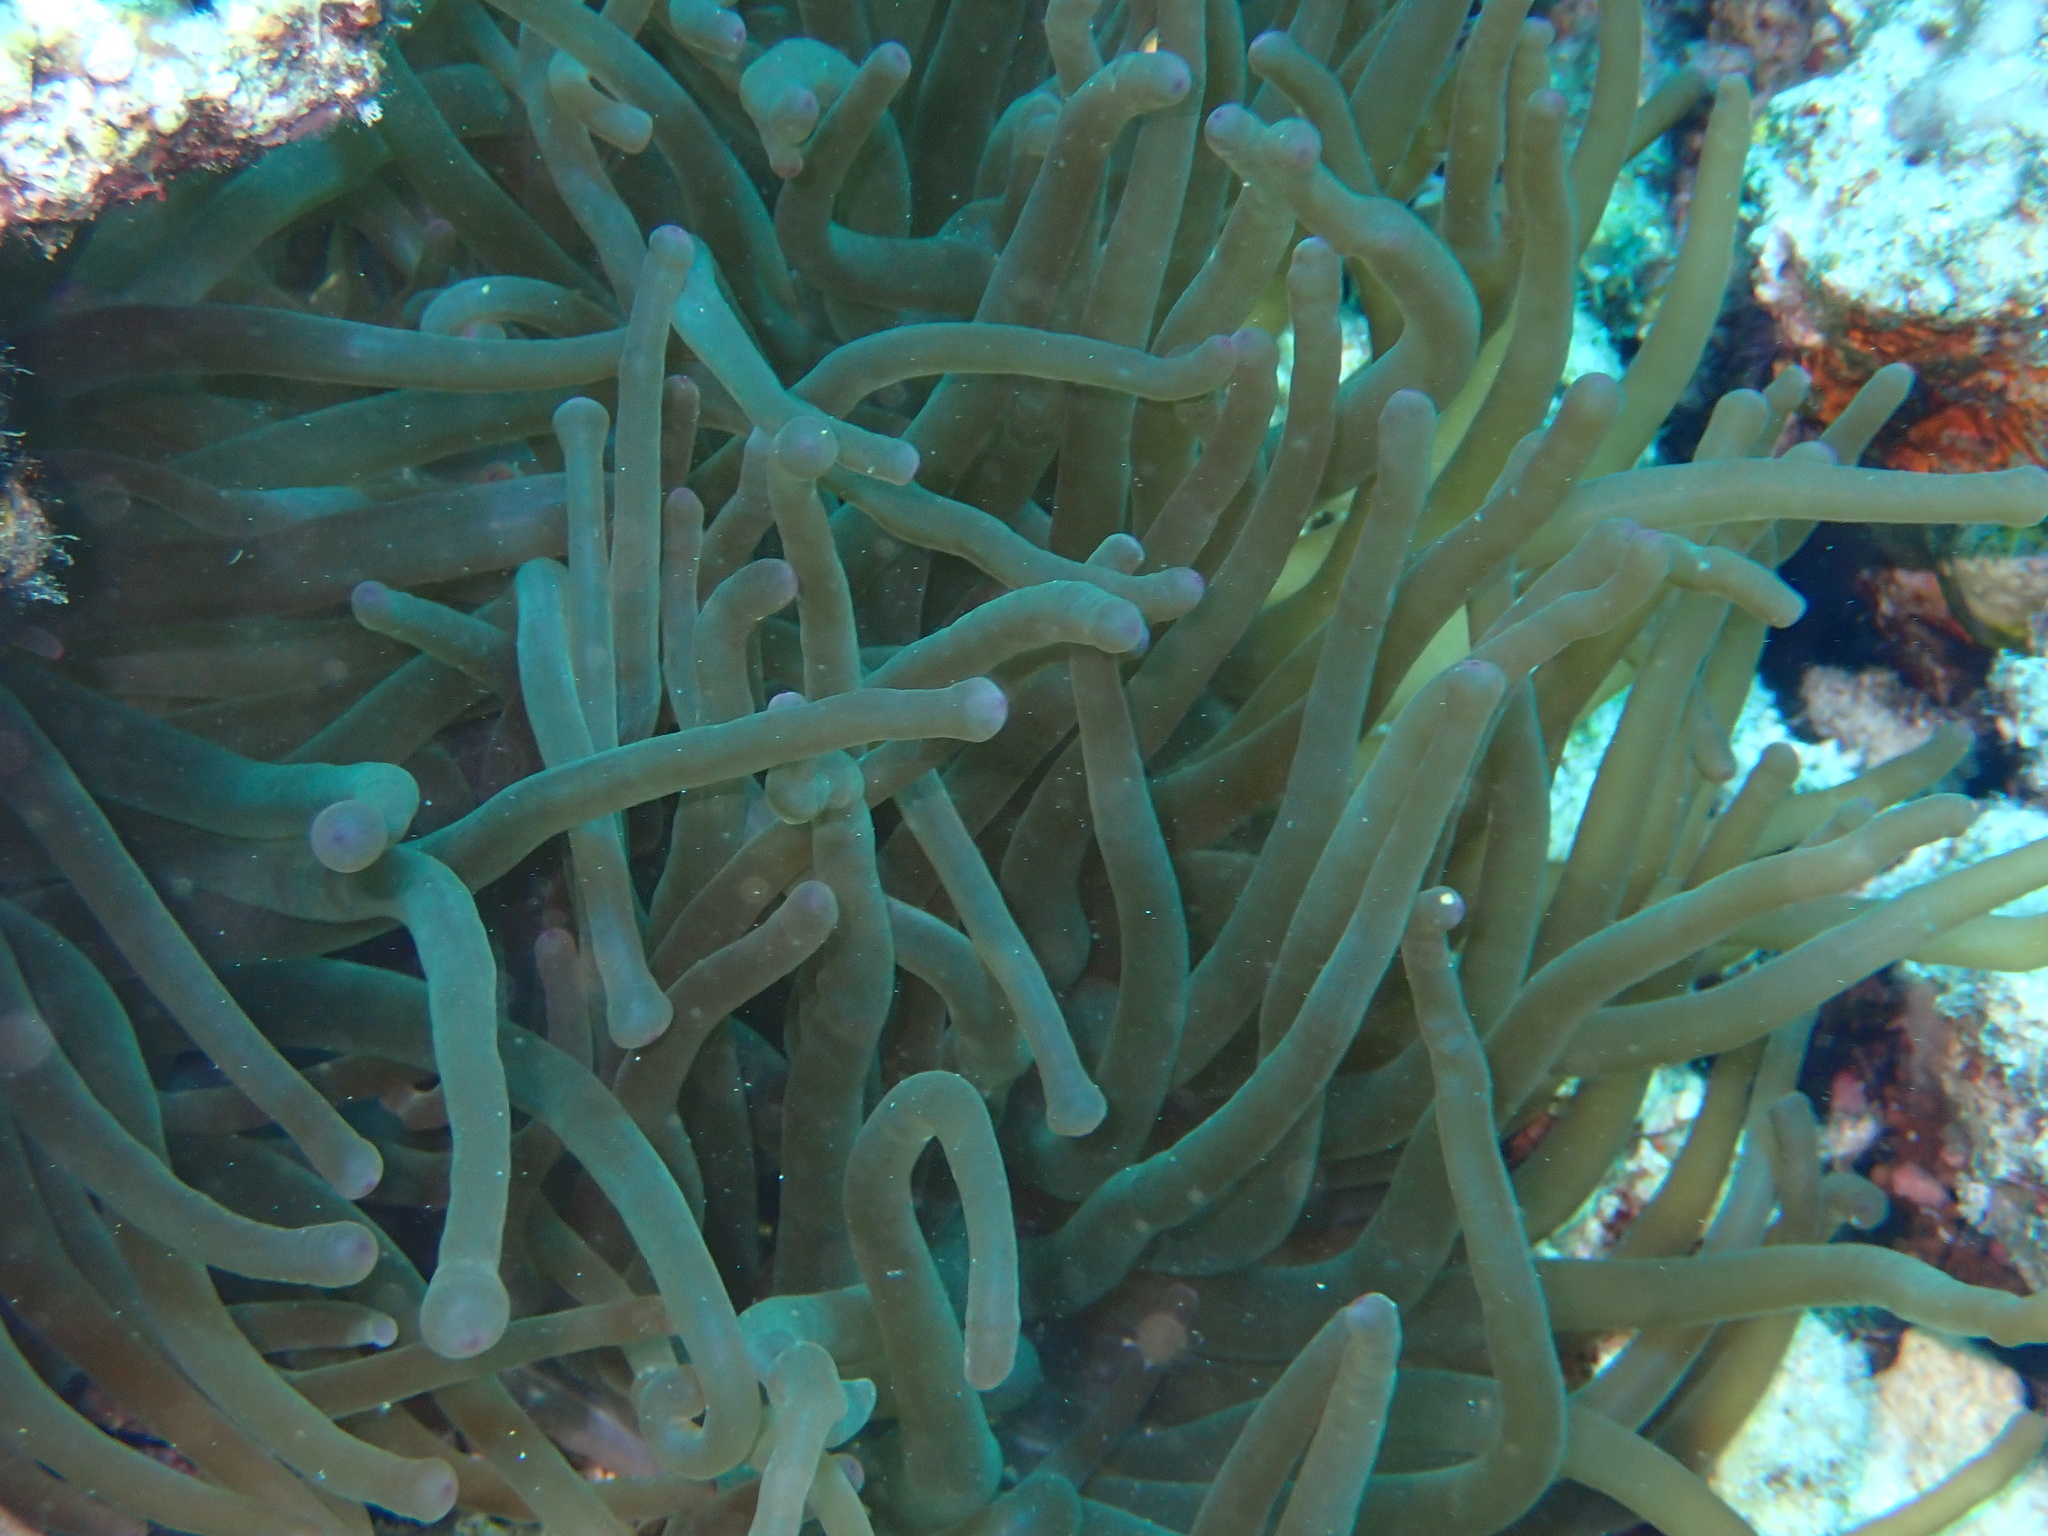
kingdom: Animalia
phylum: Cnidaria
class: Anthozoa
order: Actiniaria
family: Actiniidae
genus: Entacmaea
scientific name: Entacmaea quadricolor
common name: Bulb tentacle sea anemone
